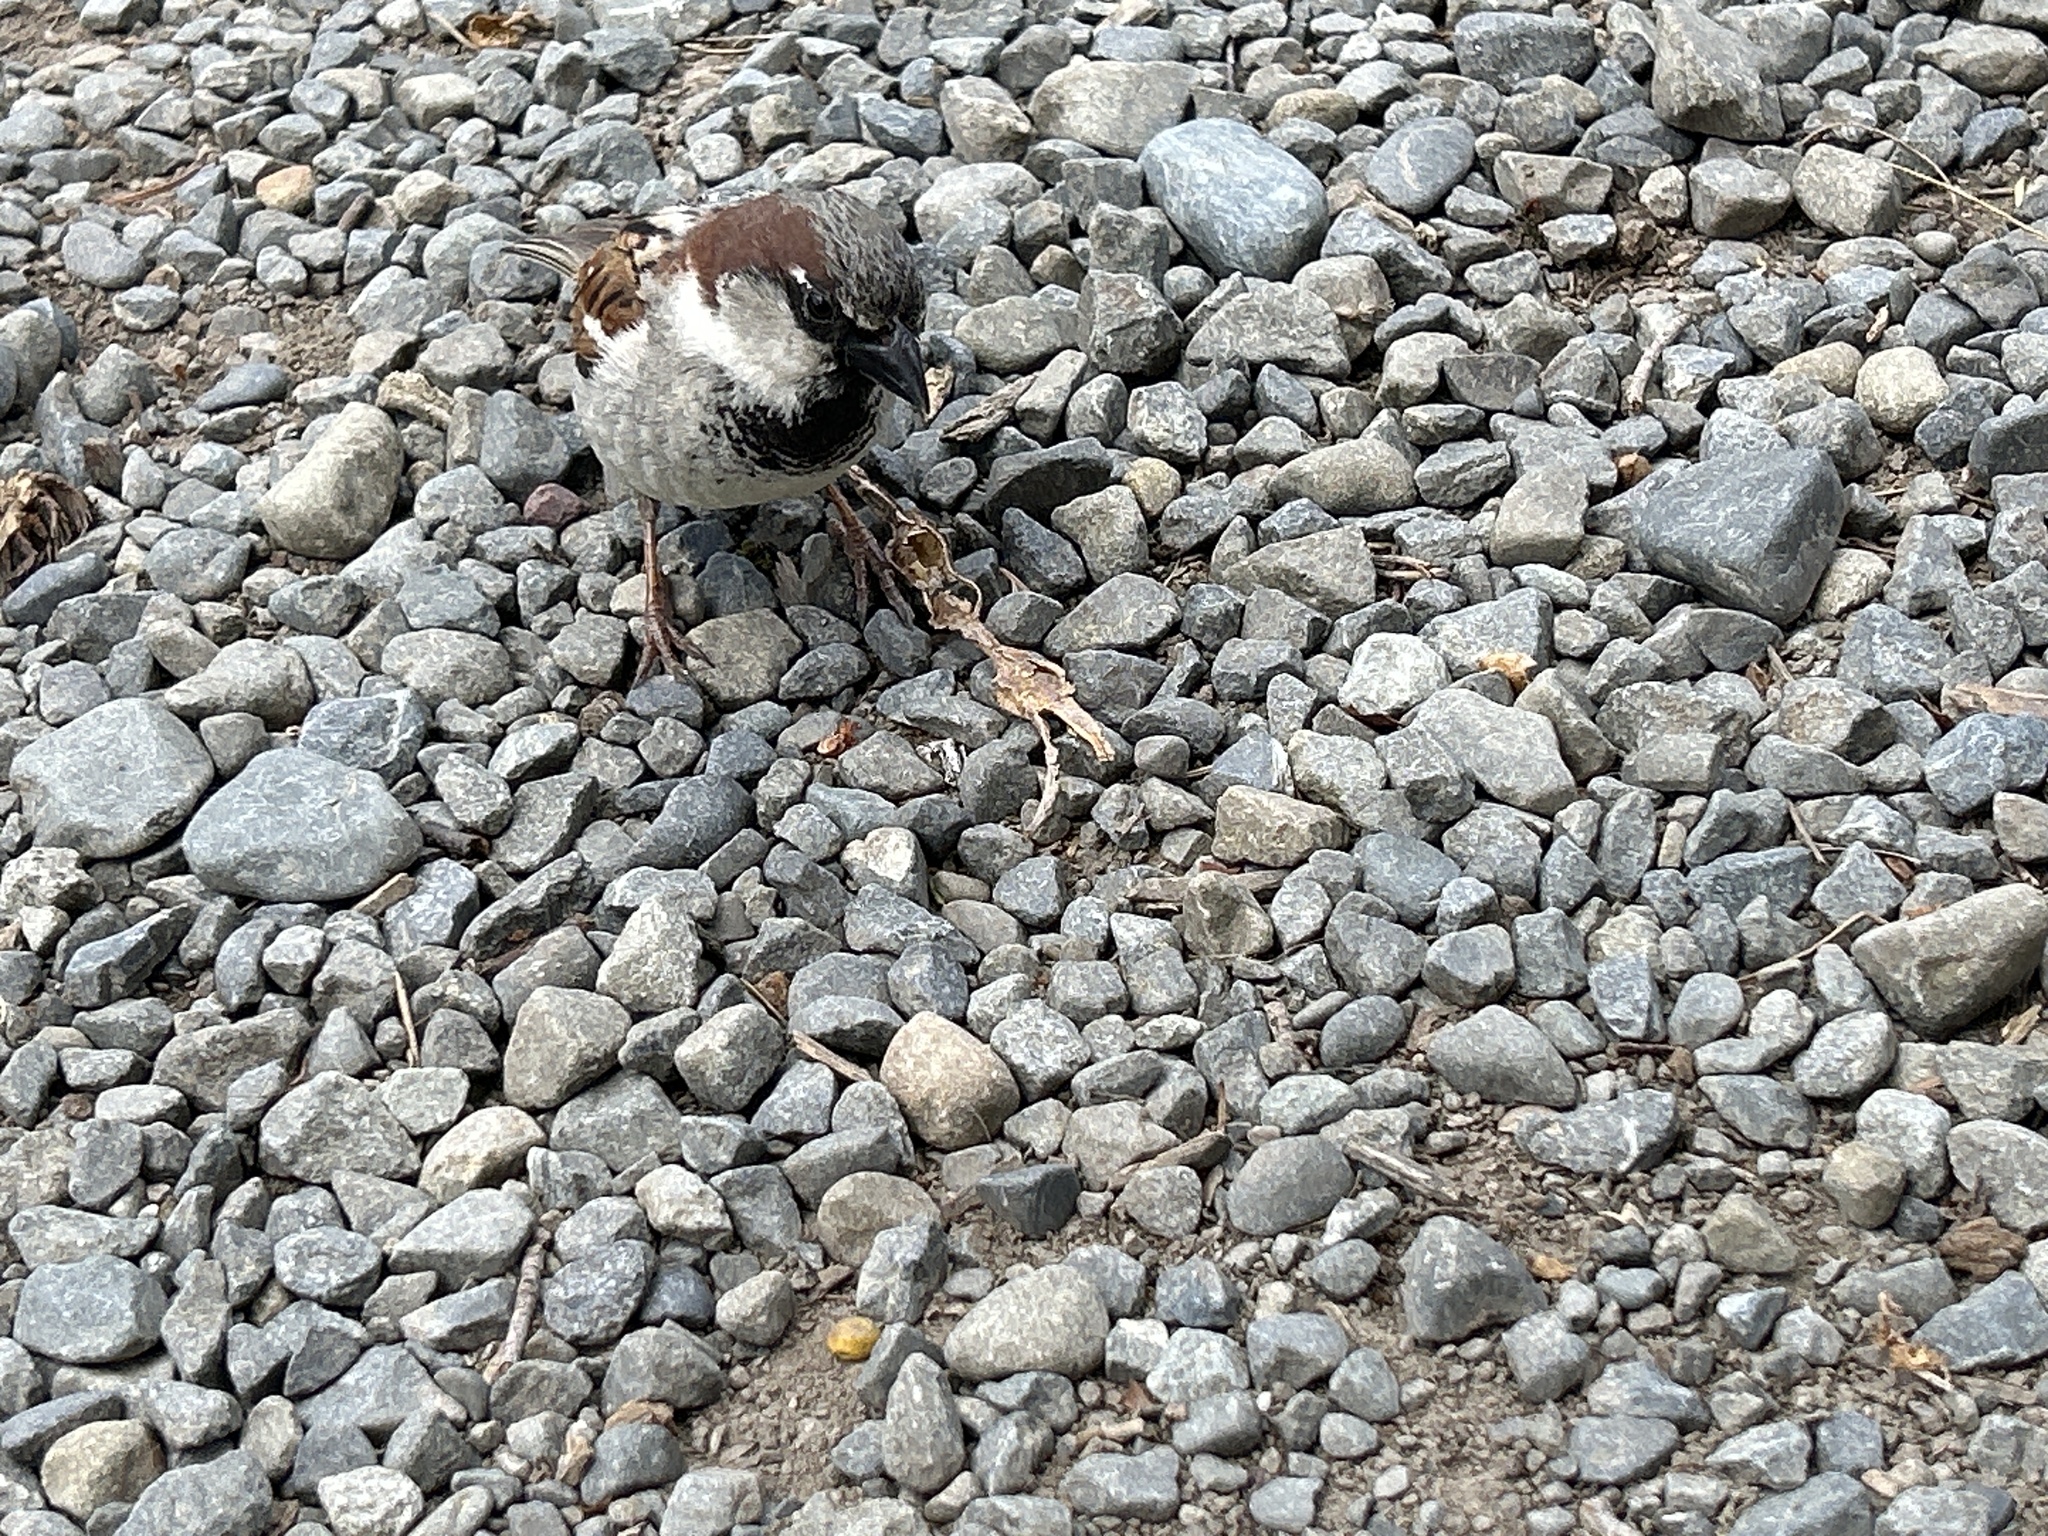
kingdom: Animalia
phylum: Chordata
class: Aves
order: Passeriformes
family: Passeridae
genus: Passer
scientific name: Passer domesticus
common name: House sparrow
